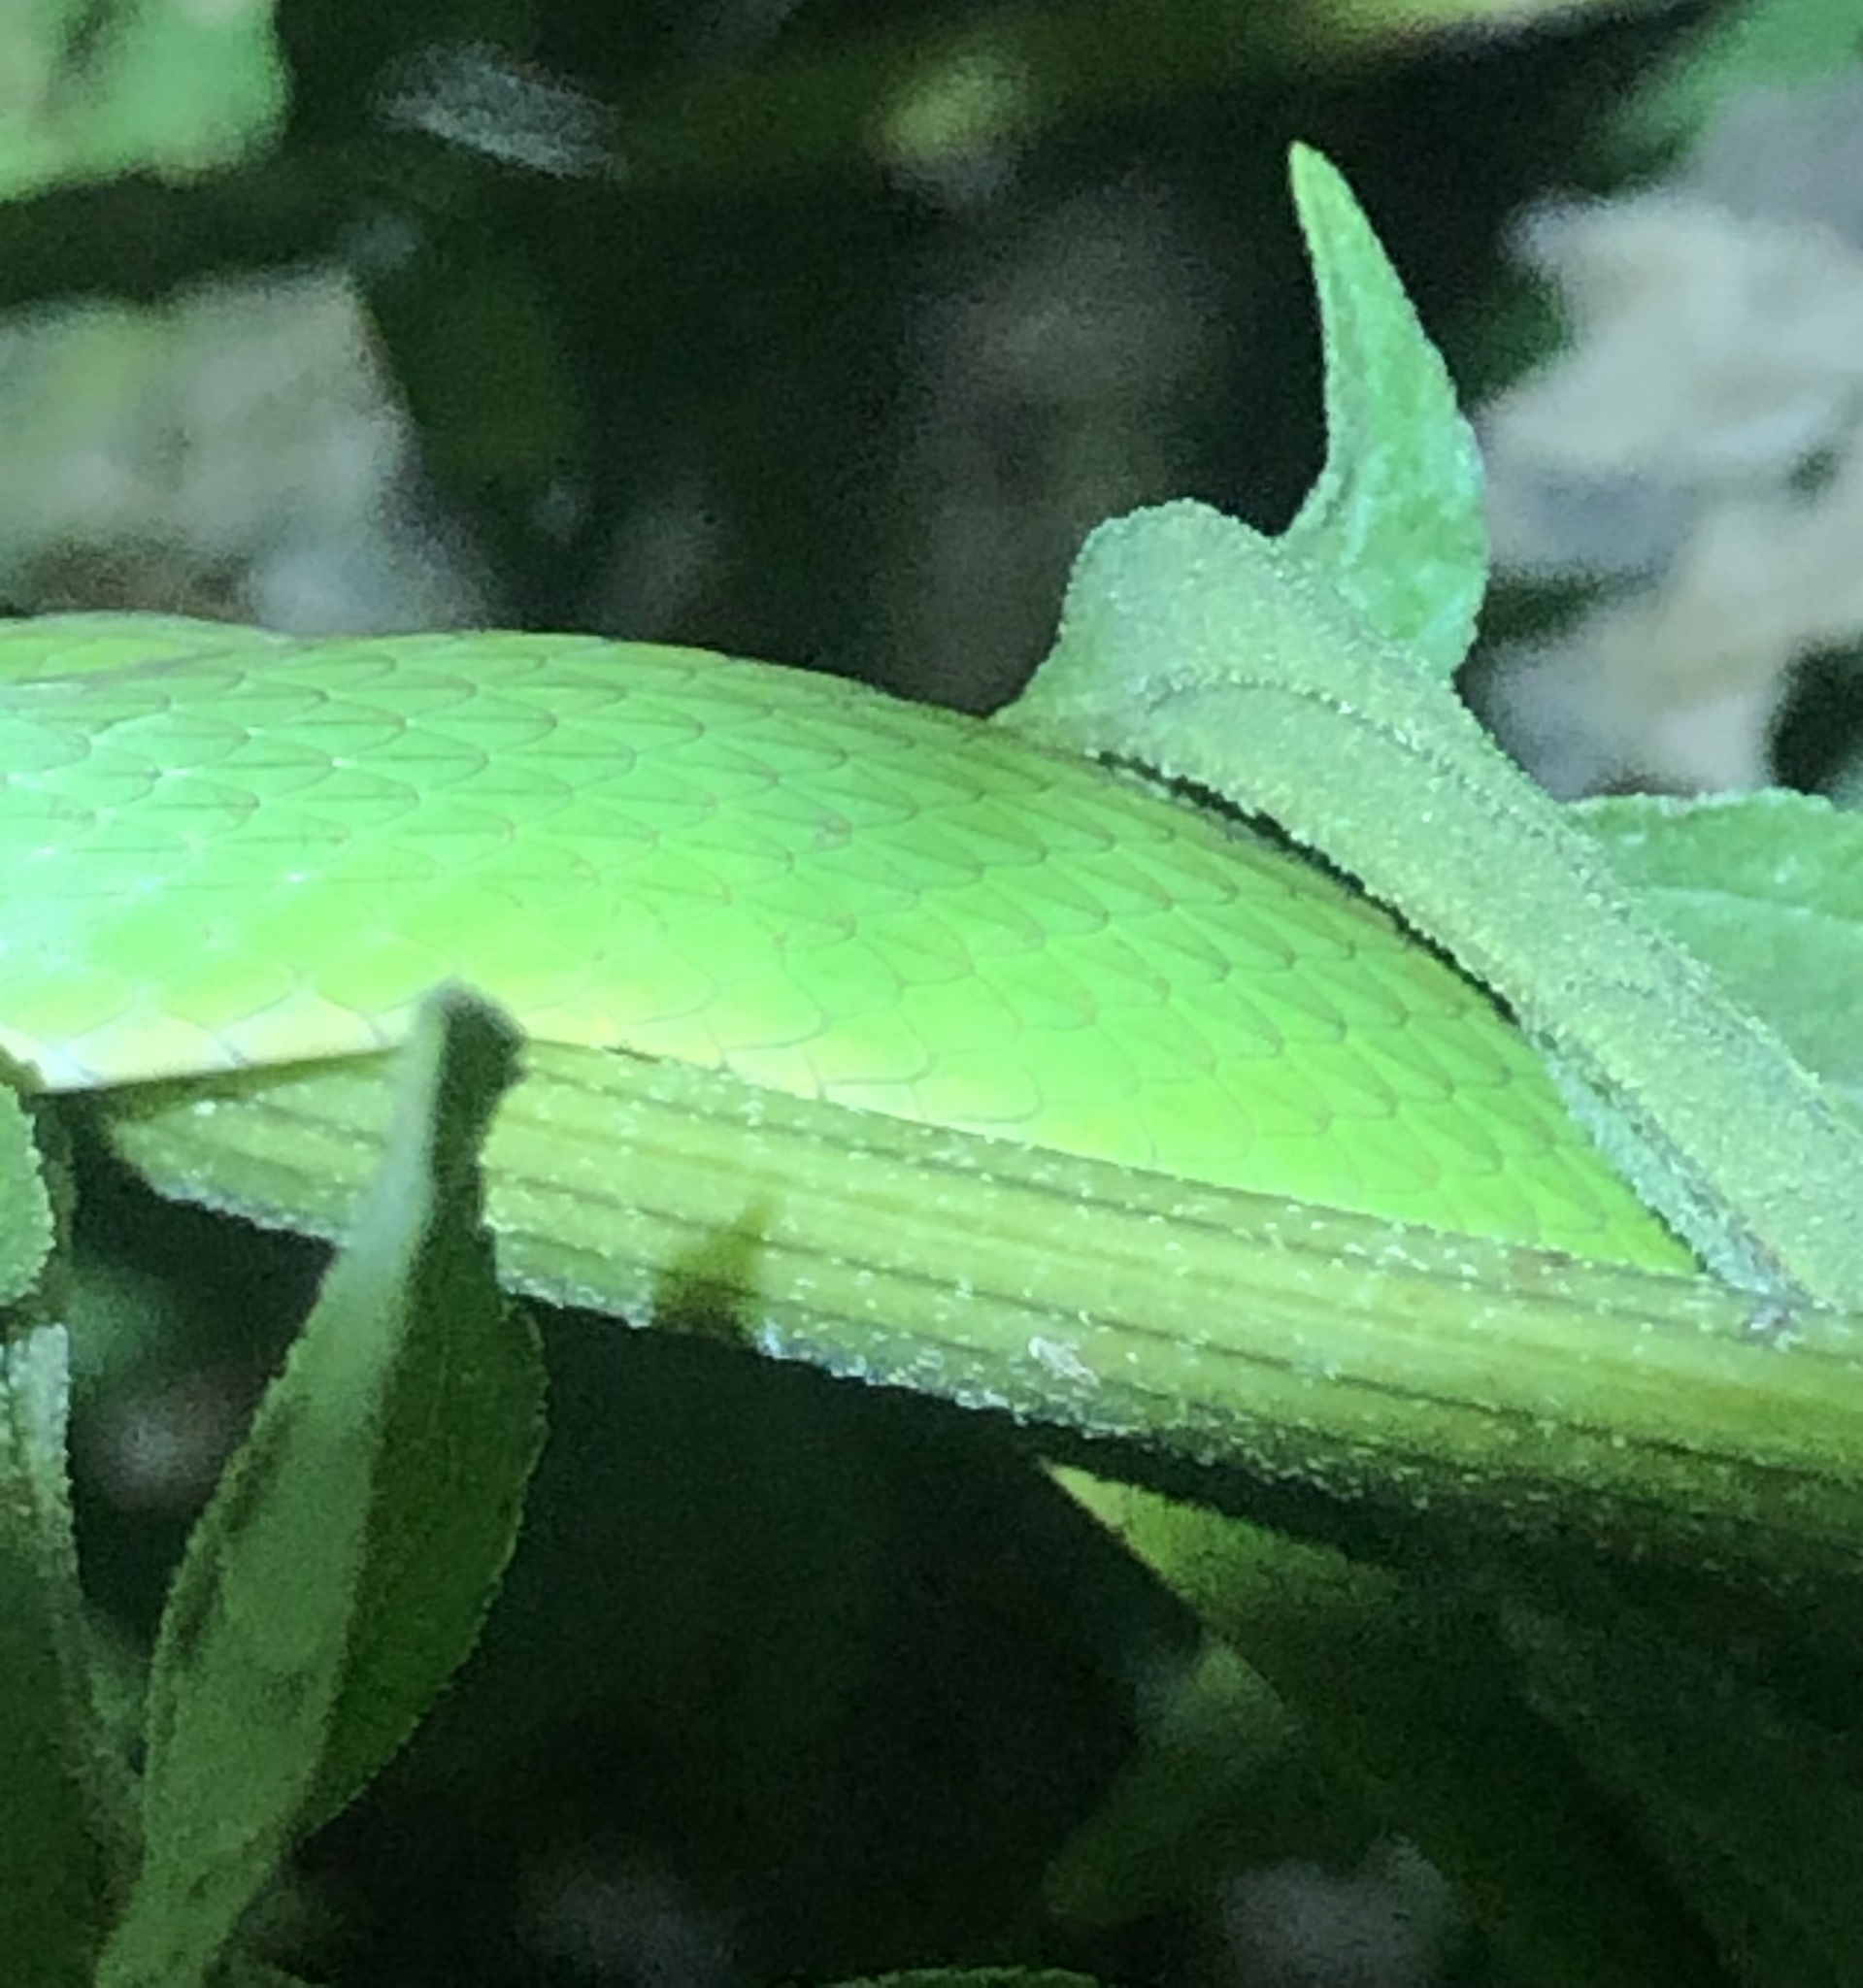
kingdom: Animalia
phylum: Chordata
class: Squamata
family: Colubridae
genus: Opheodrys
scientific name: Opheodrys aestivus
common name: Rough greensnake
